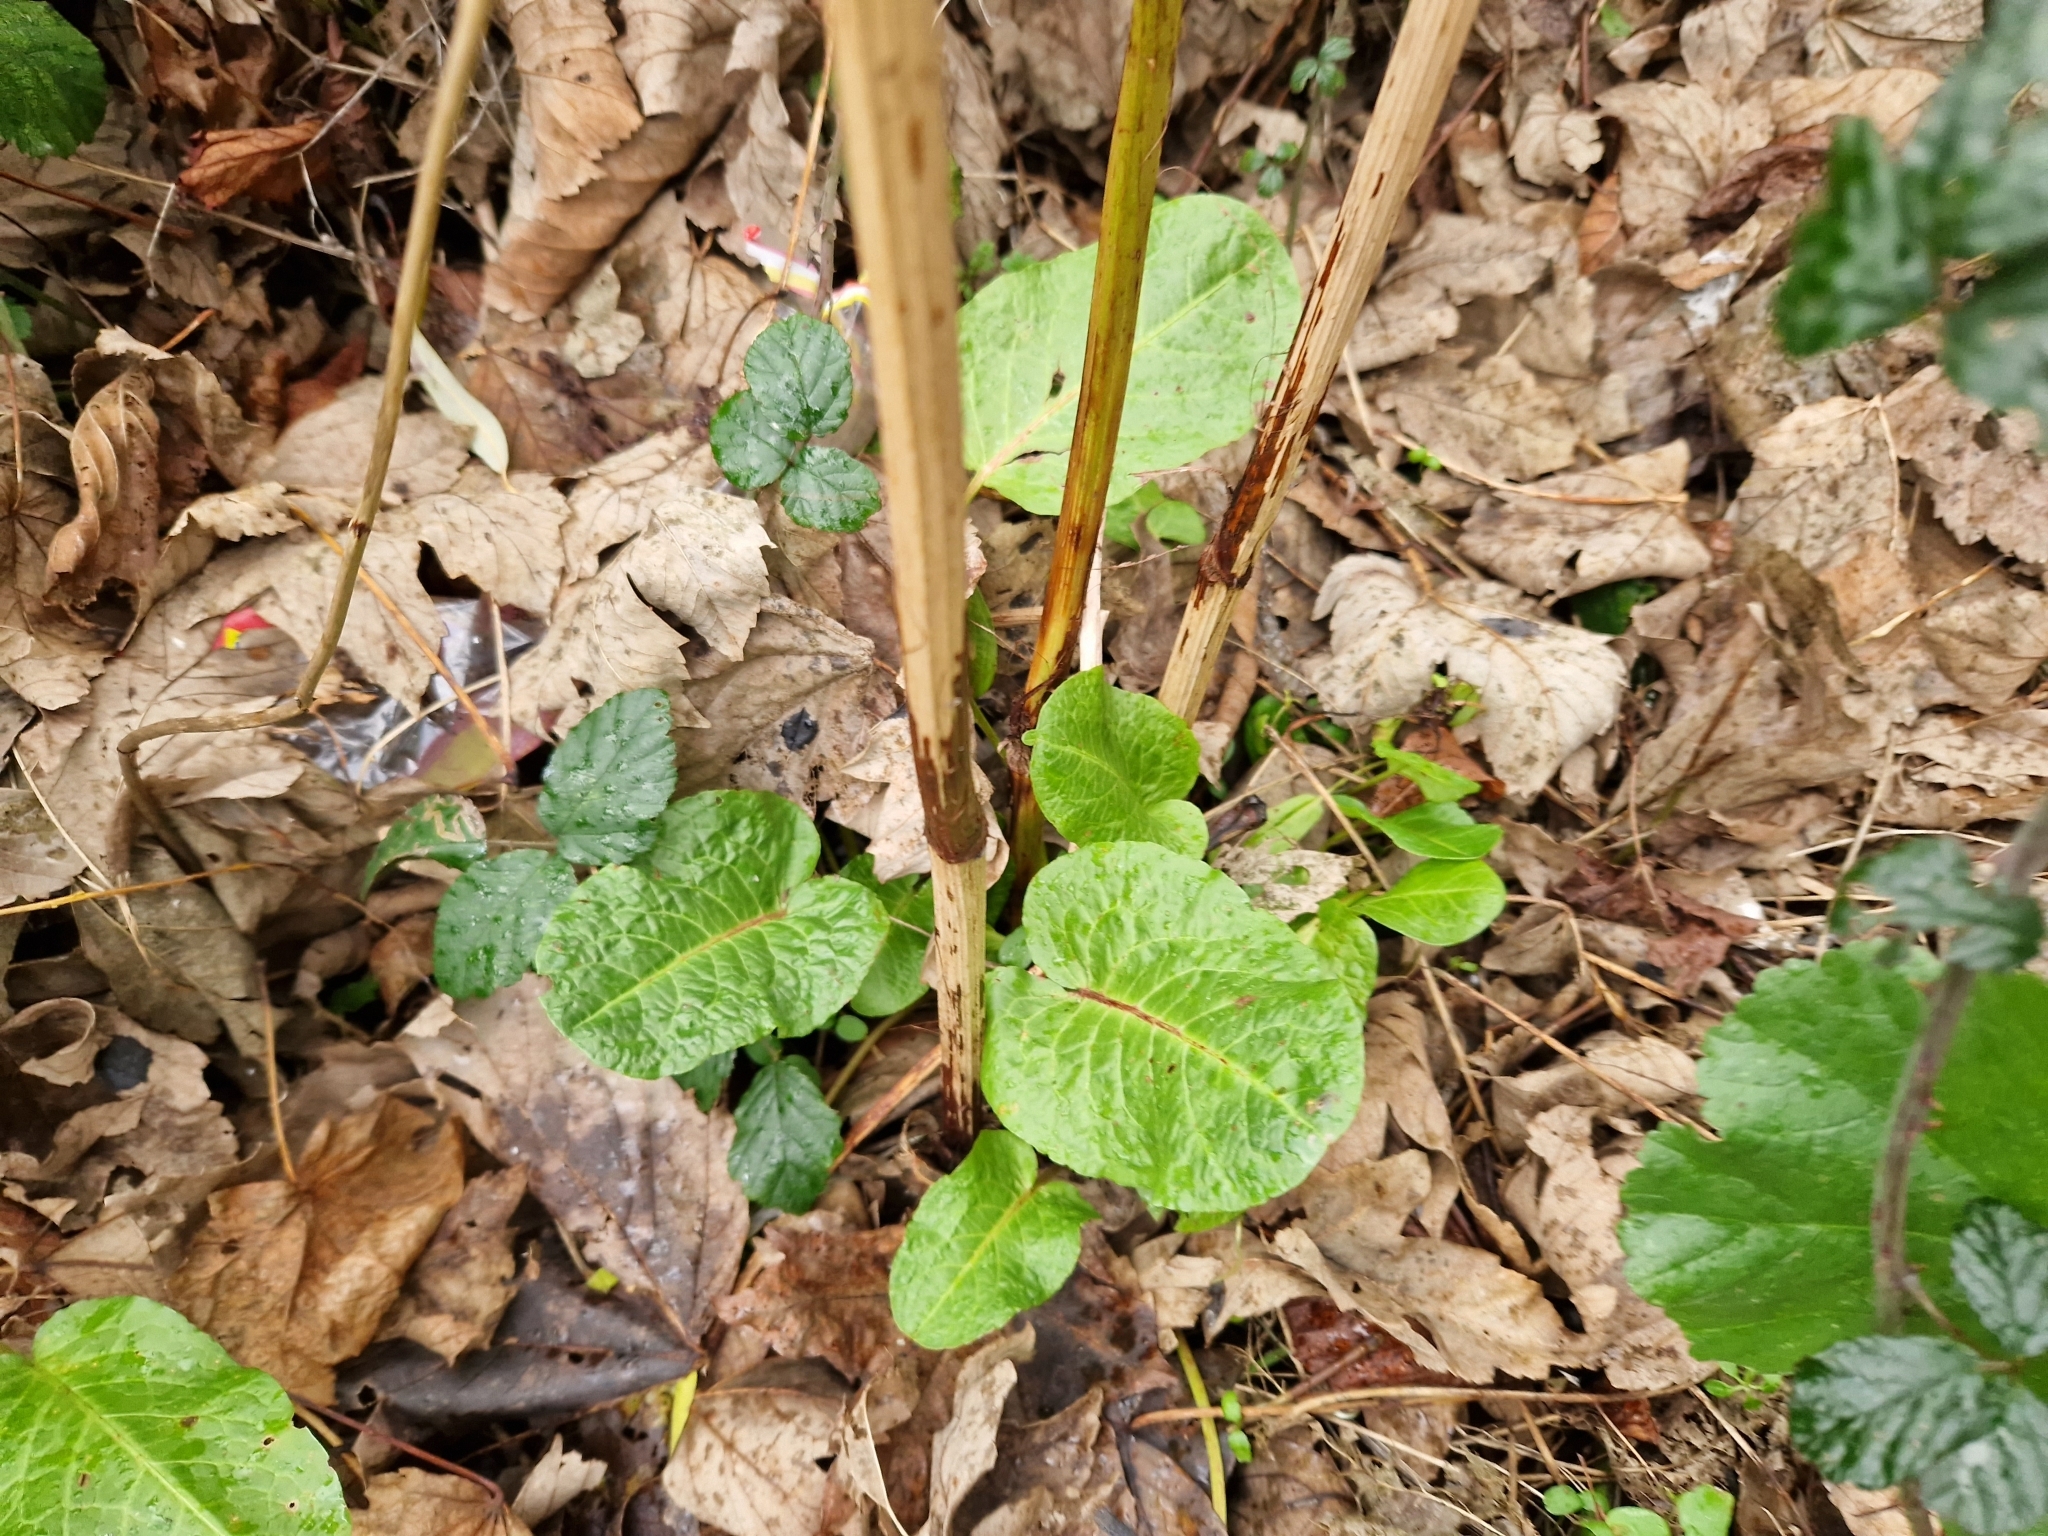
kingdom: Plantae
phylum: Tracheophyta
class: Magnoliopsida
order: Caryophyllales
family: Polygonaceae
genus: Rumex
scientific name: Rumex obtusifolius
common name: Bitter dock
